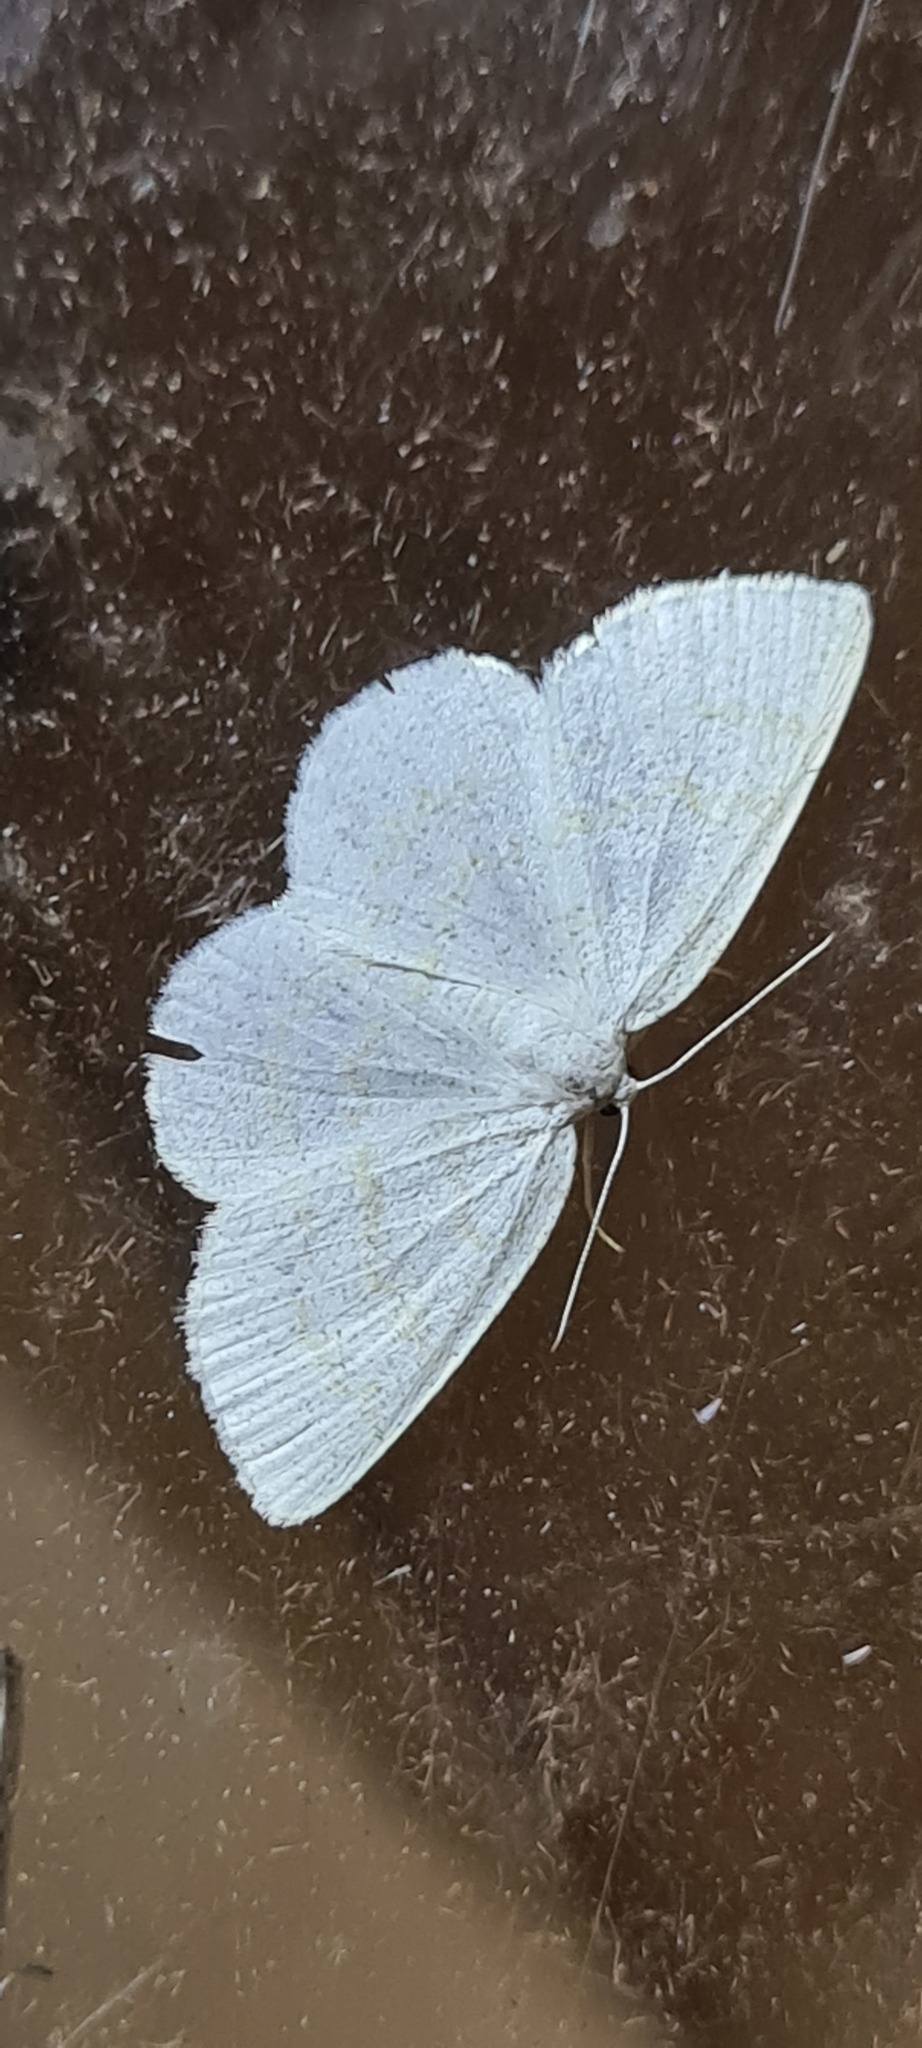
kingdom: Animalia
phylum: Arthropoda
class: Insecta
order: Lepidoptera
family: Geometridae
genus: Cabera
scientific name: Cabera exanthemata
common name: Common wave
